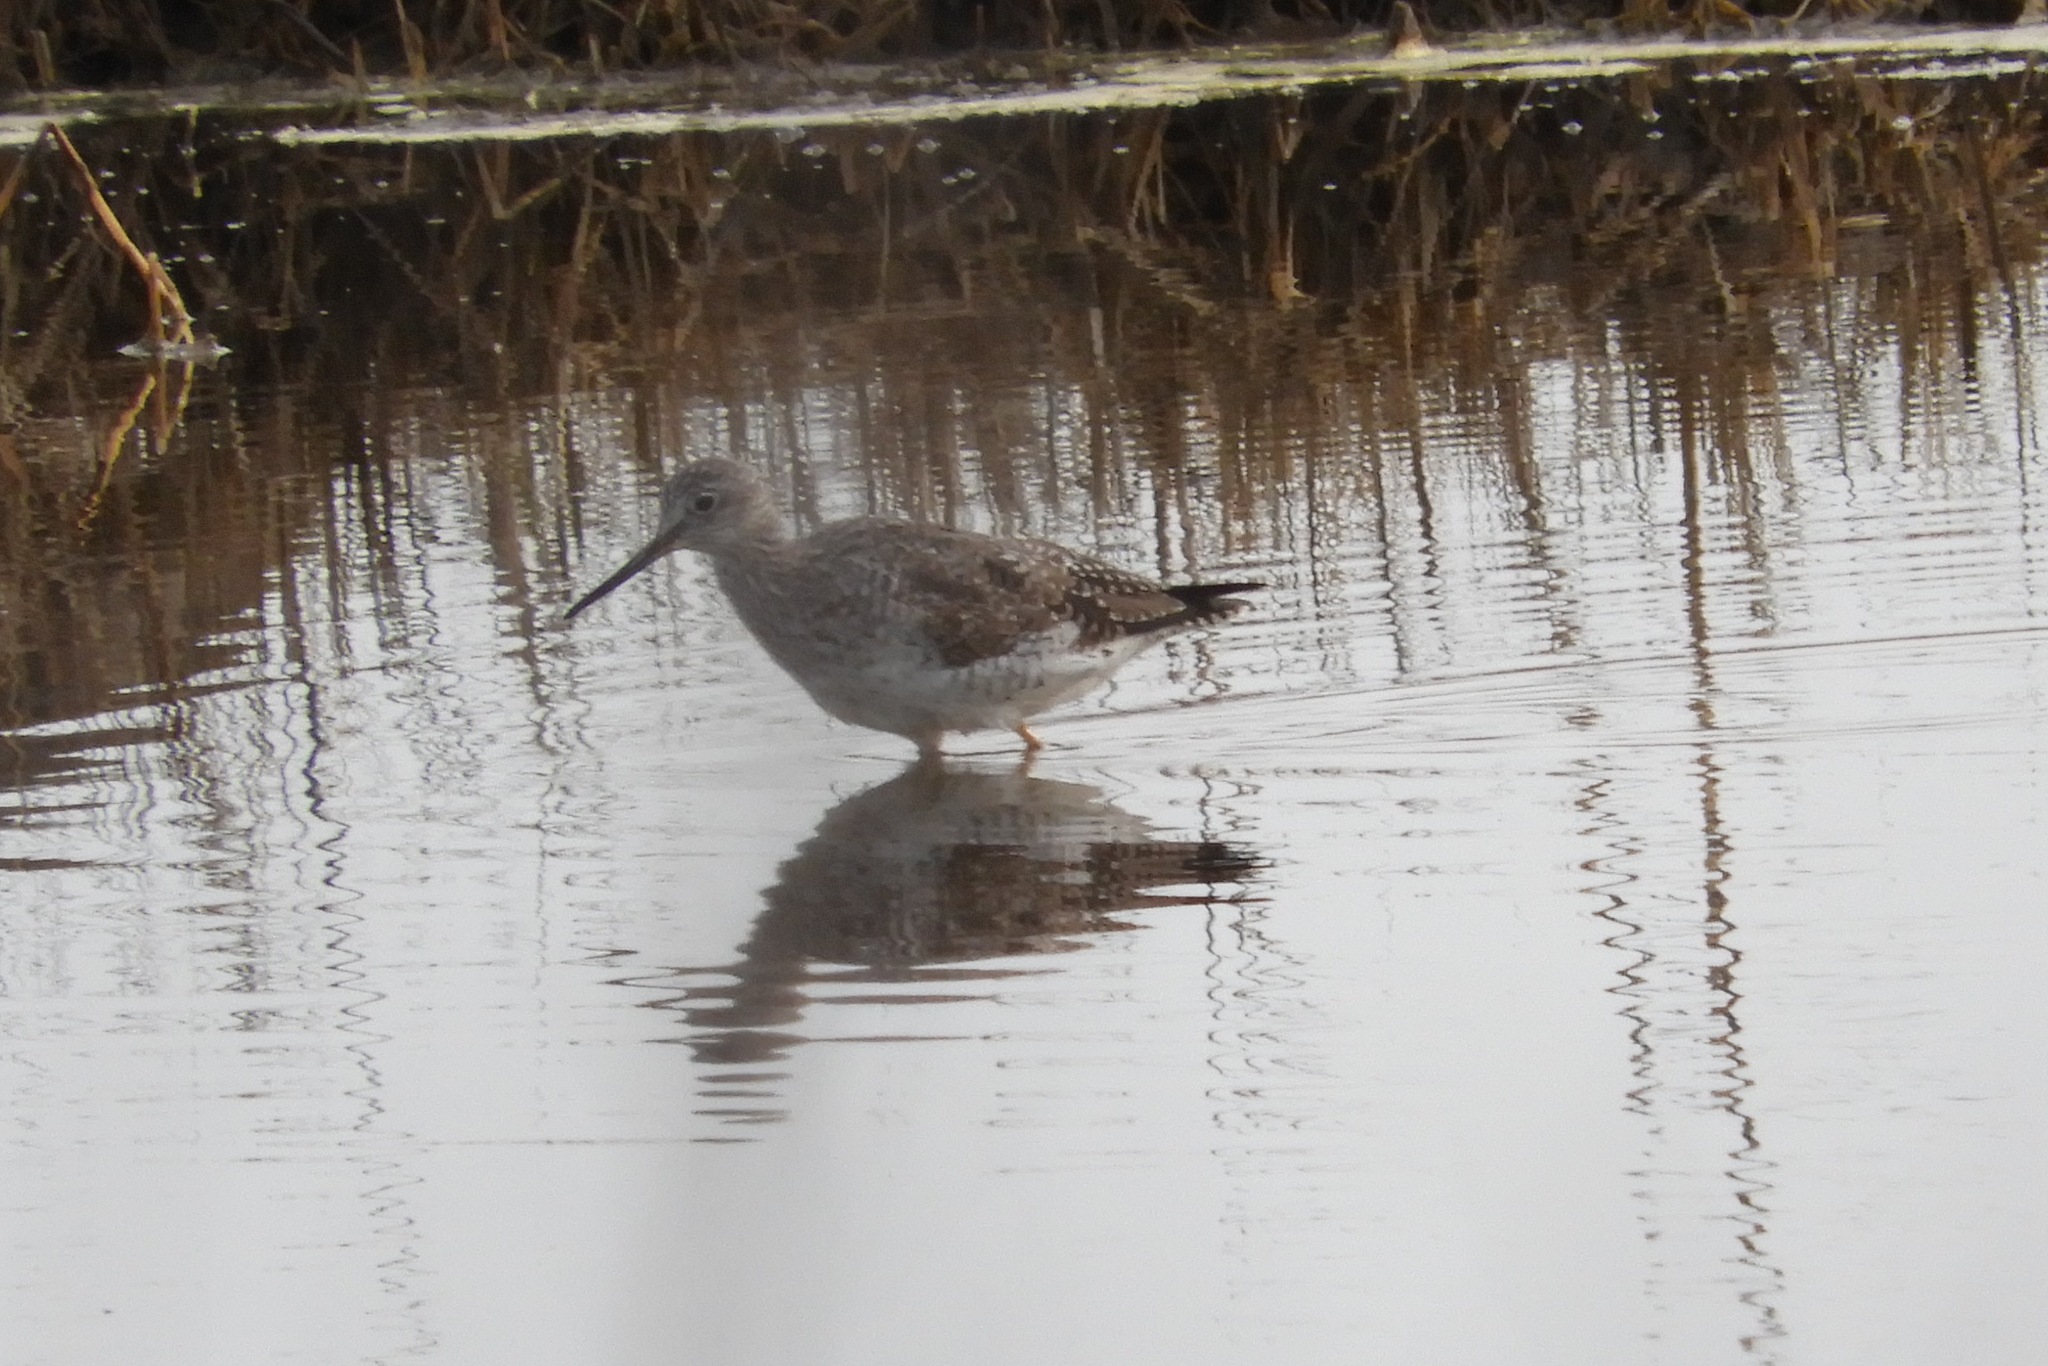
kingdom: Animalia
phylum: Chordata
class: Aves
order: Charadriiformes
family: Scolopacidae
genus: Tringa
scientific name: Tringa melanoleuca
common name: Greater yellowlegs
